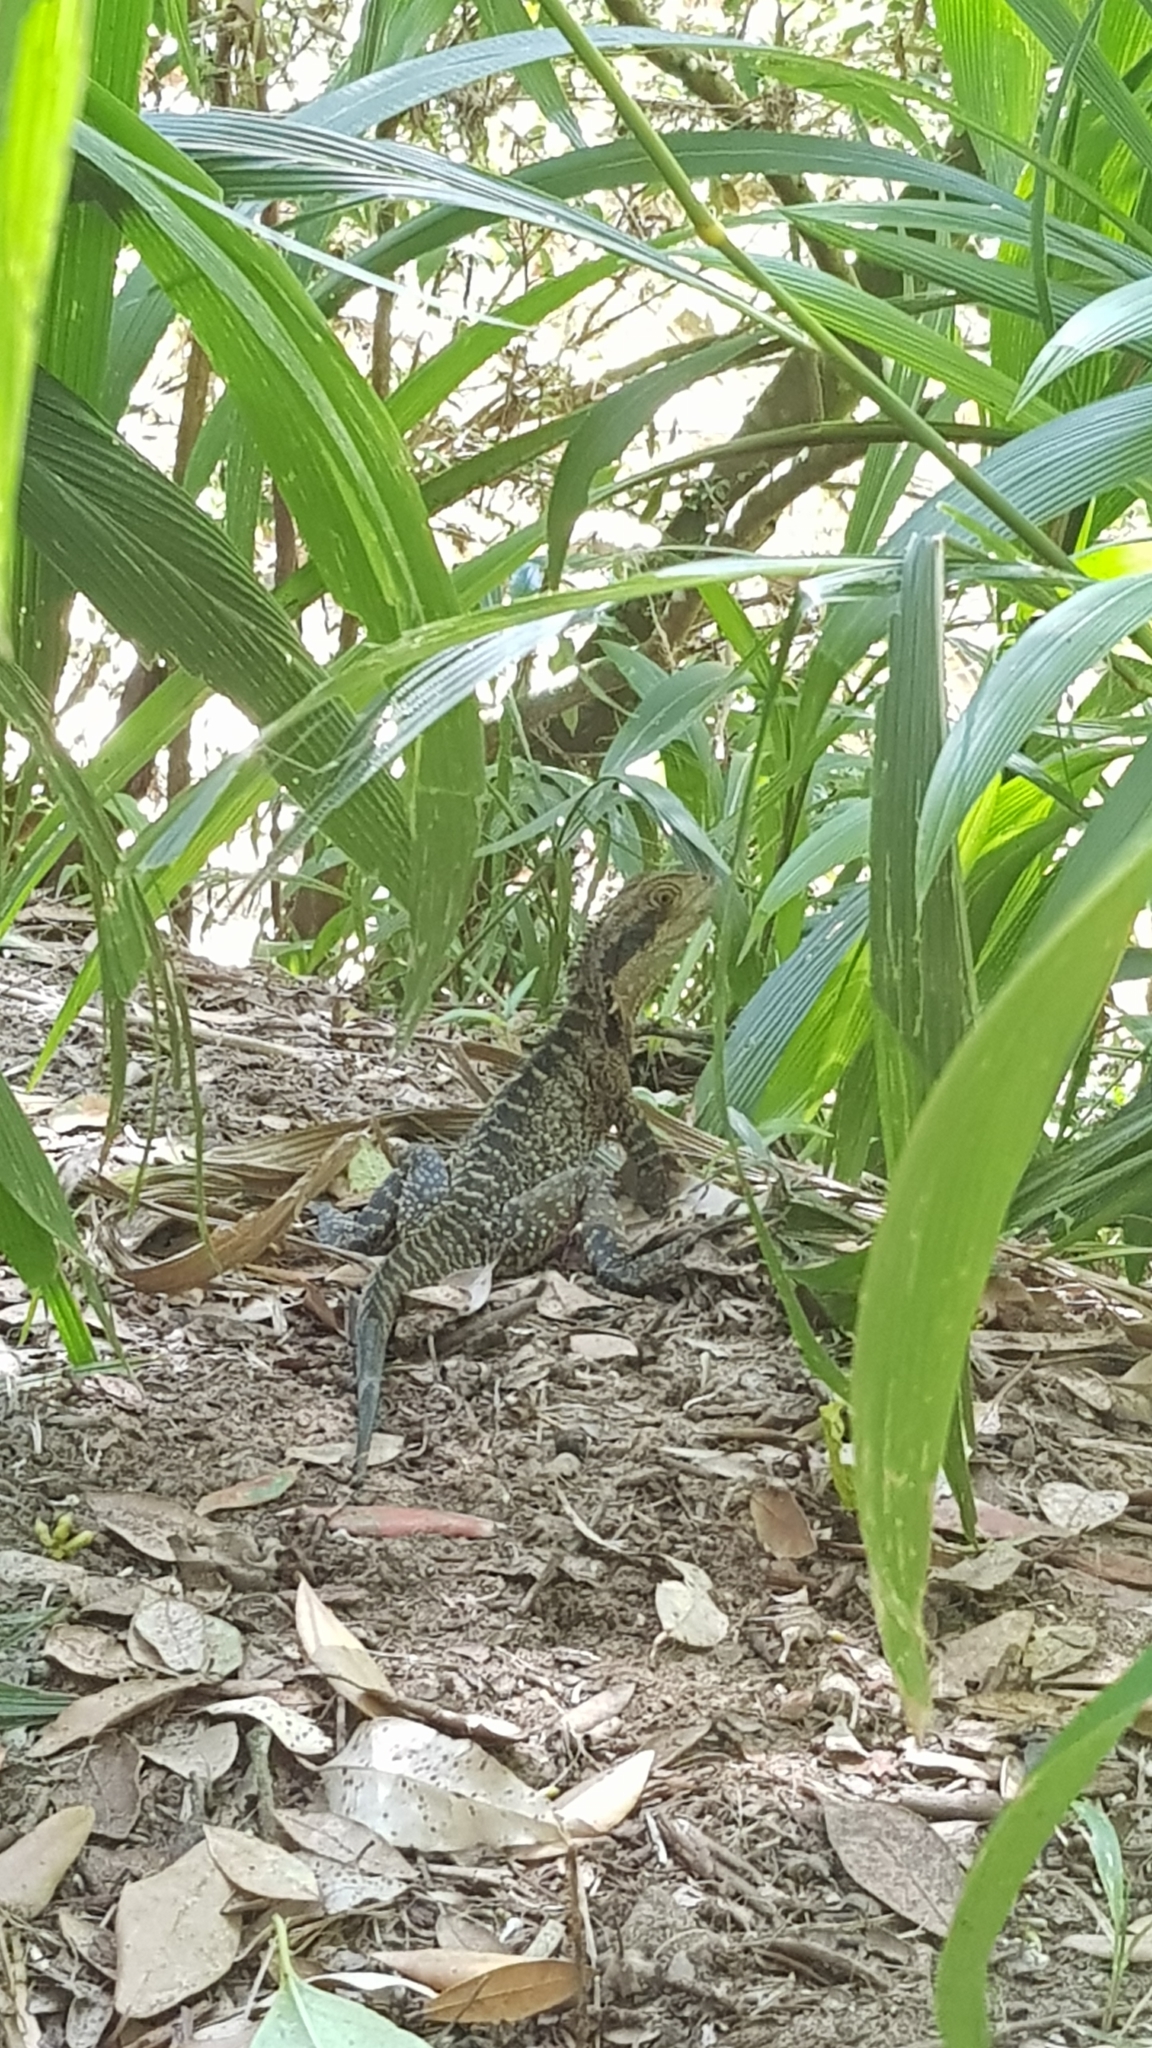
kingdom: Animalia
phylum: Chordata
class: Squamata
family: Agamidae
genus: Intellagama
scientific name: Intellagama lesueurii
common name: Eastern water dragon
